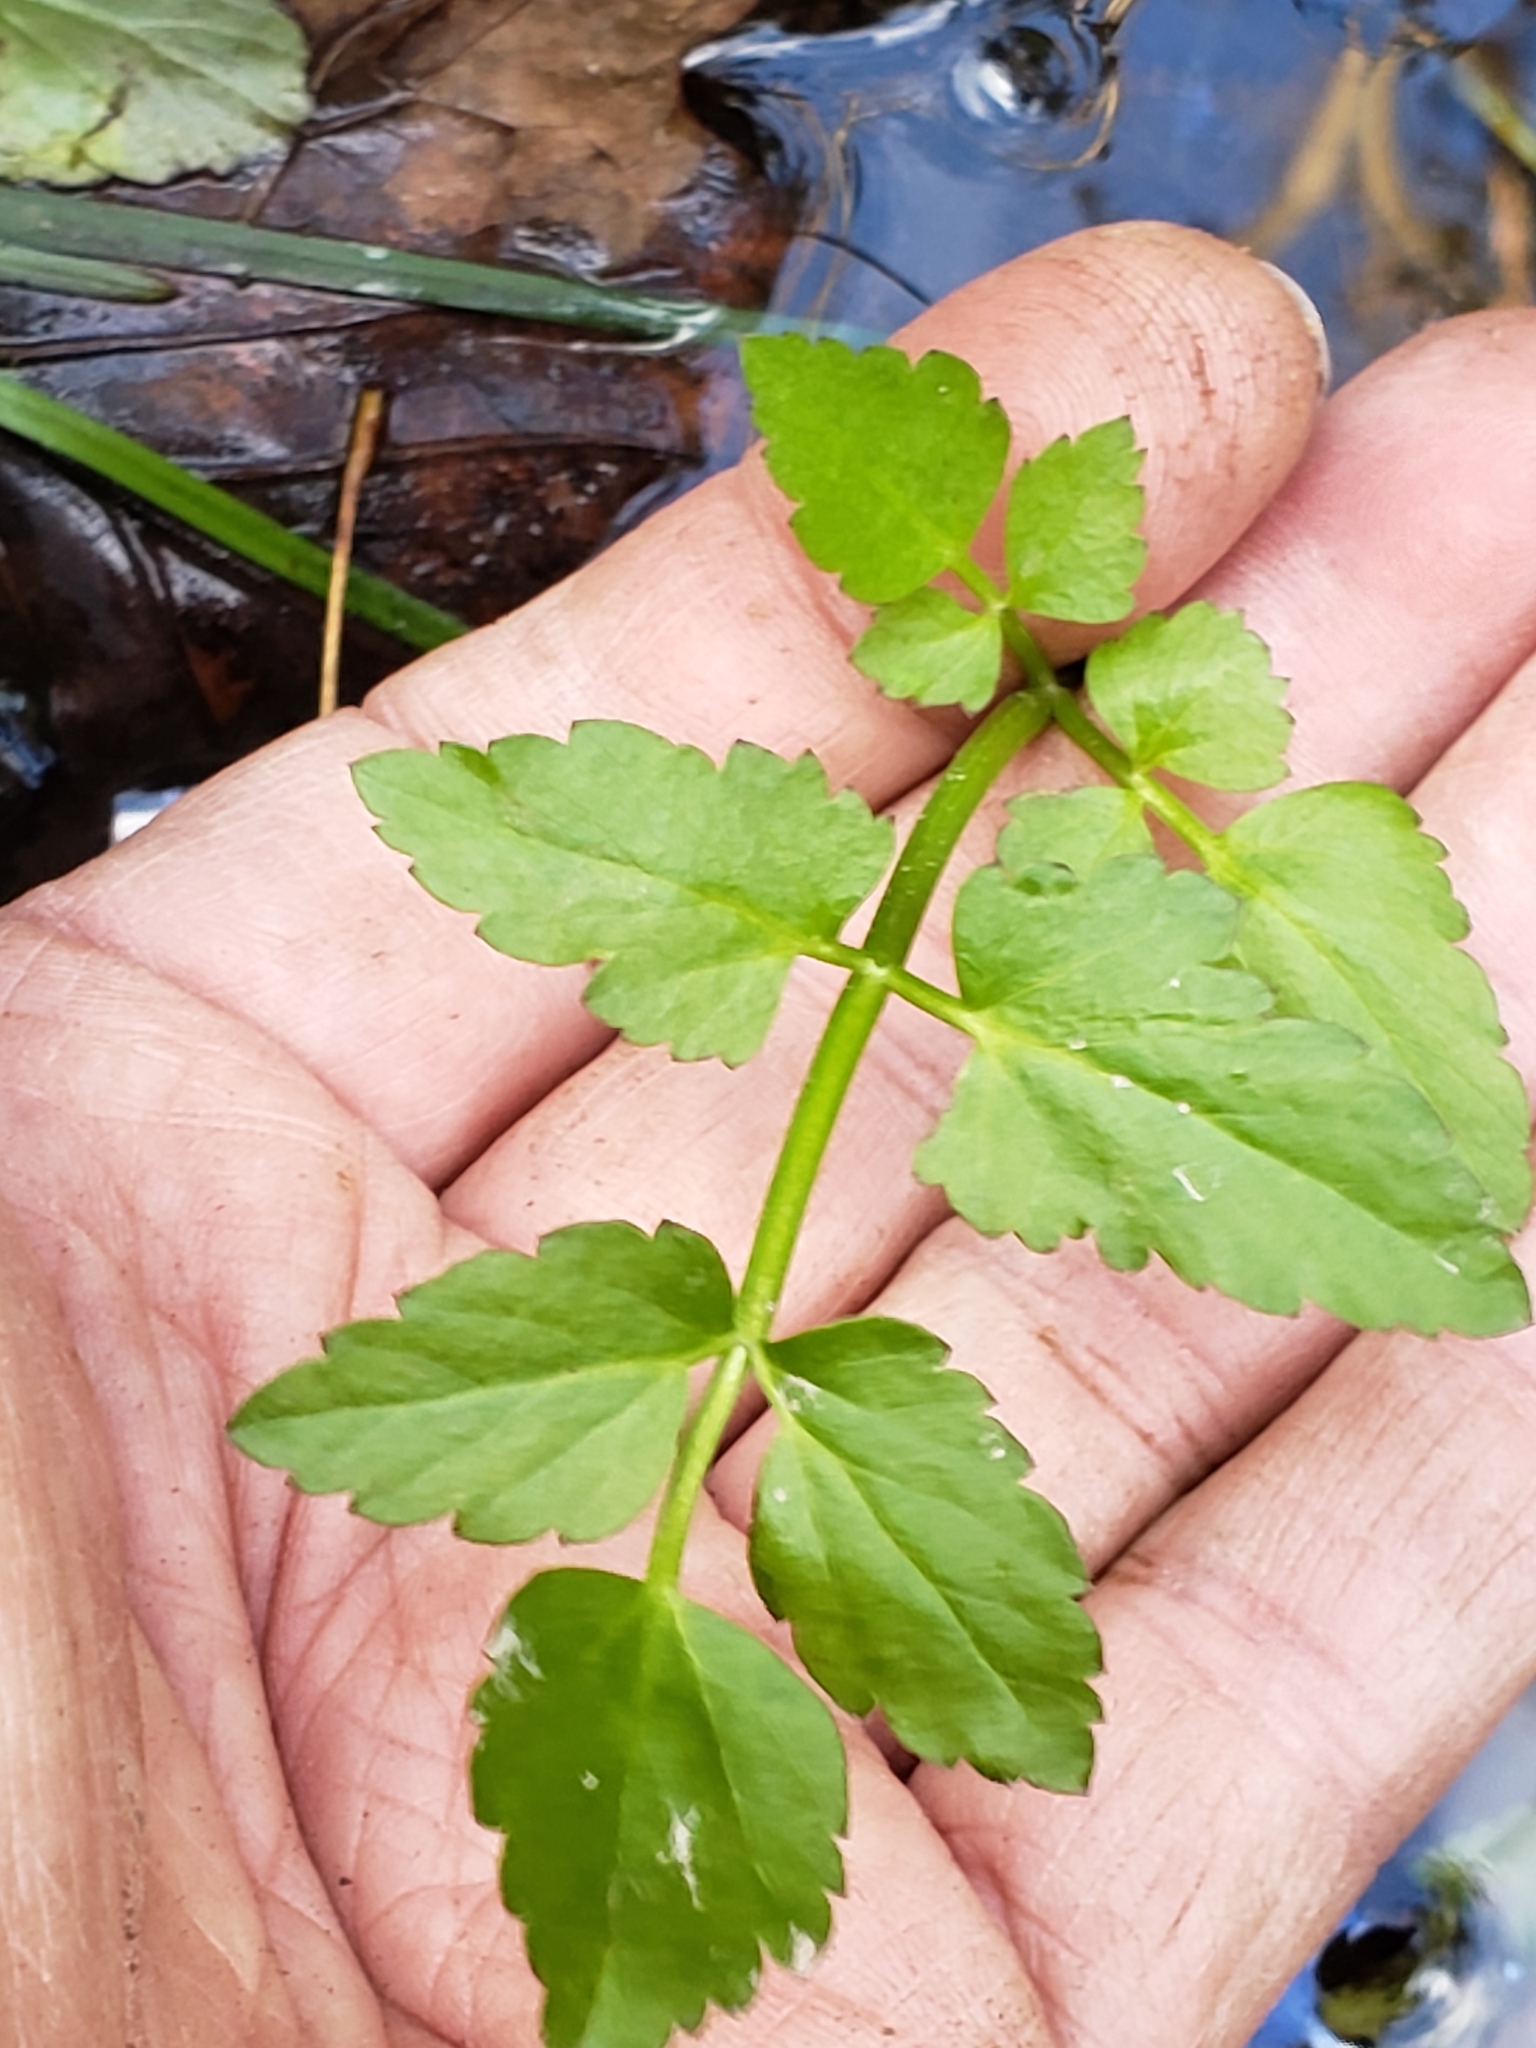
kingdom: Plantae
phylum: Tracheophyta
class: Magnoliopsida
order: Apiales
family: Apiaceae
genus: Oenanthe
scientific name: Oenanthe javanica
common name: Java water-dropwort
